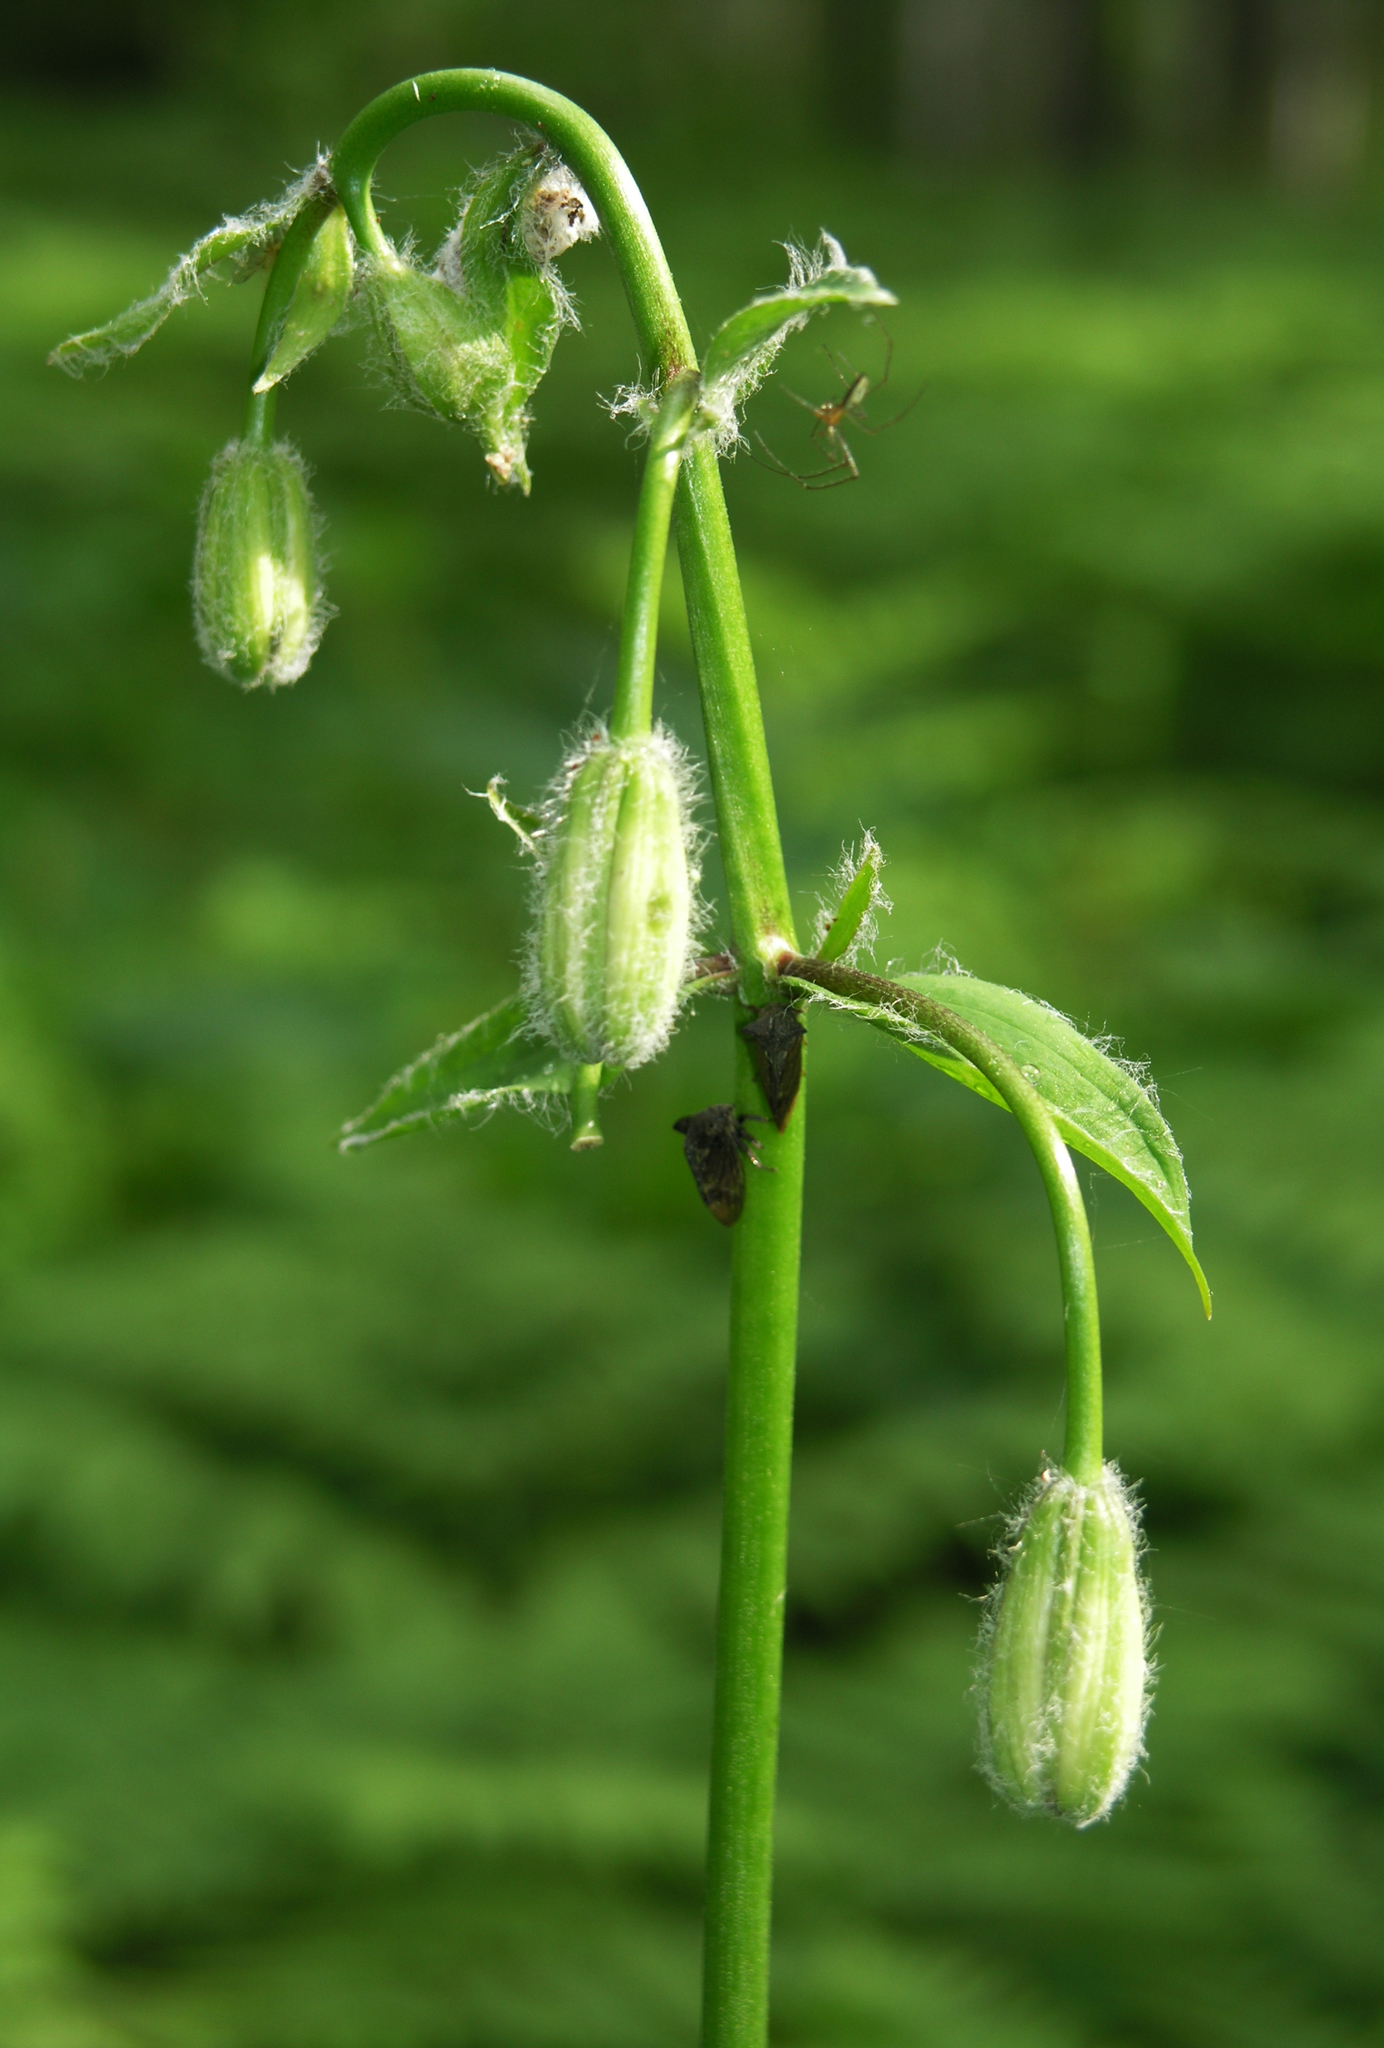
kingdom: Plantae
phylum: Tracheophyta
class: Liliopsida
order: Liliales
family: Liliaceae
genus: Lilium
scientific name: Lilium martagon
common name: Martagon lily
